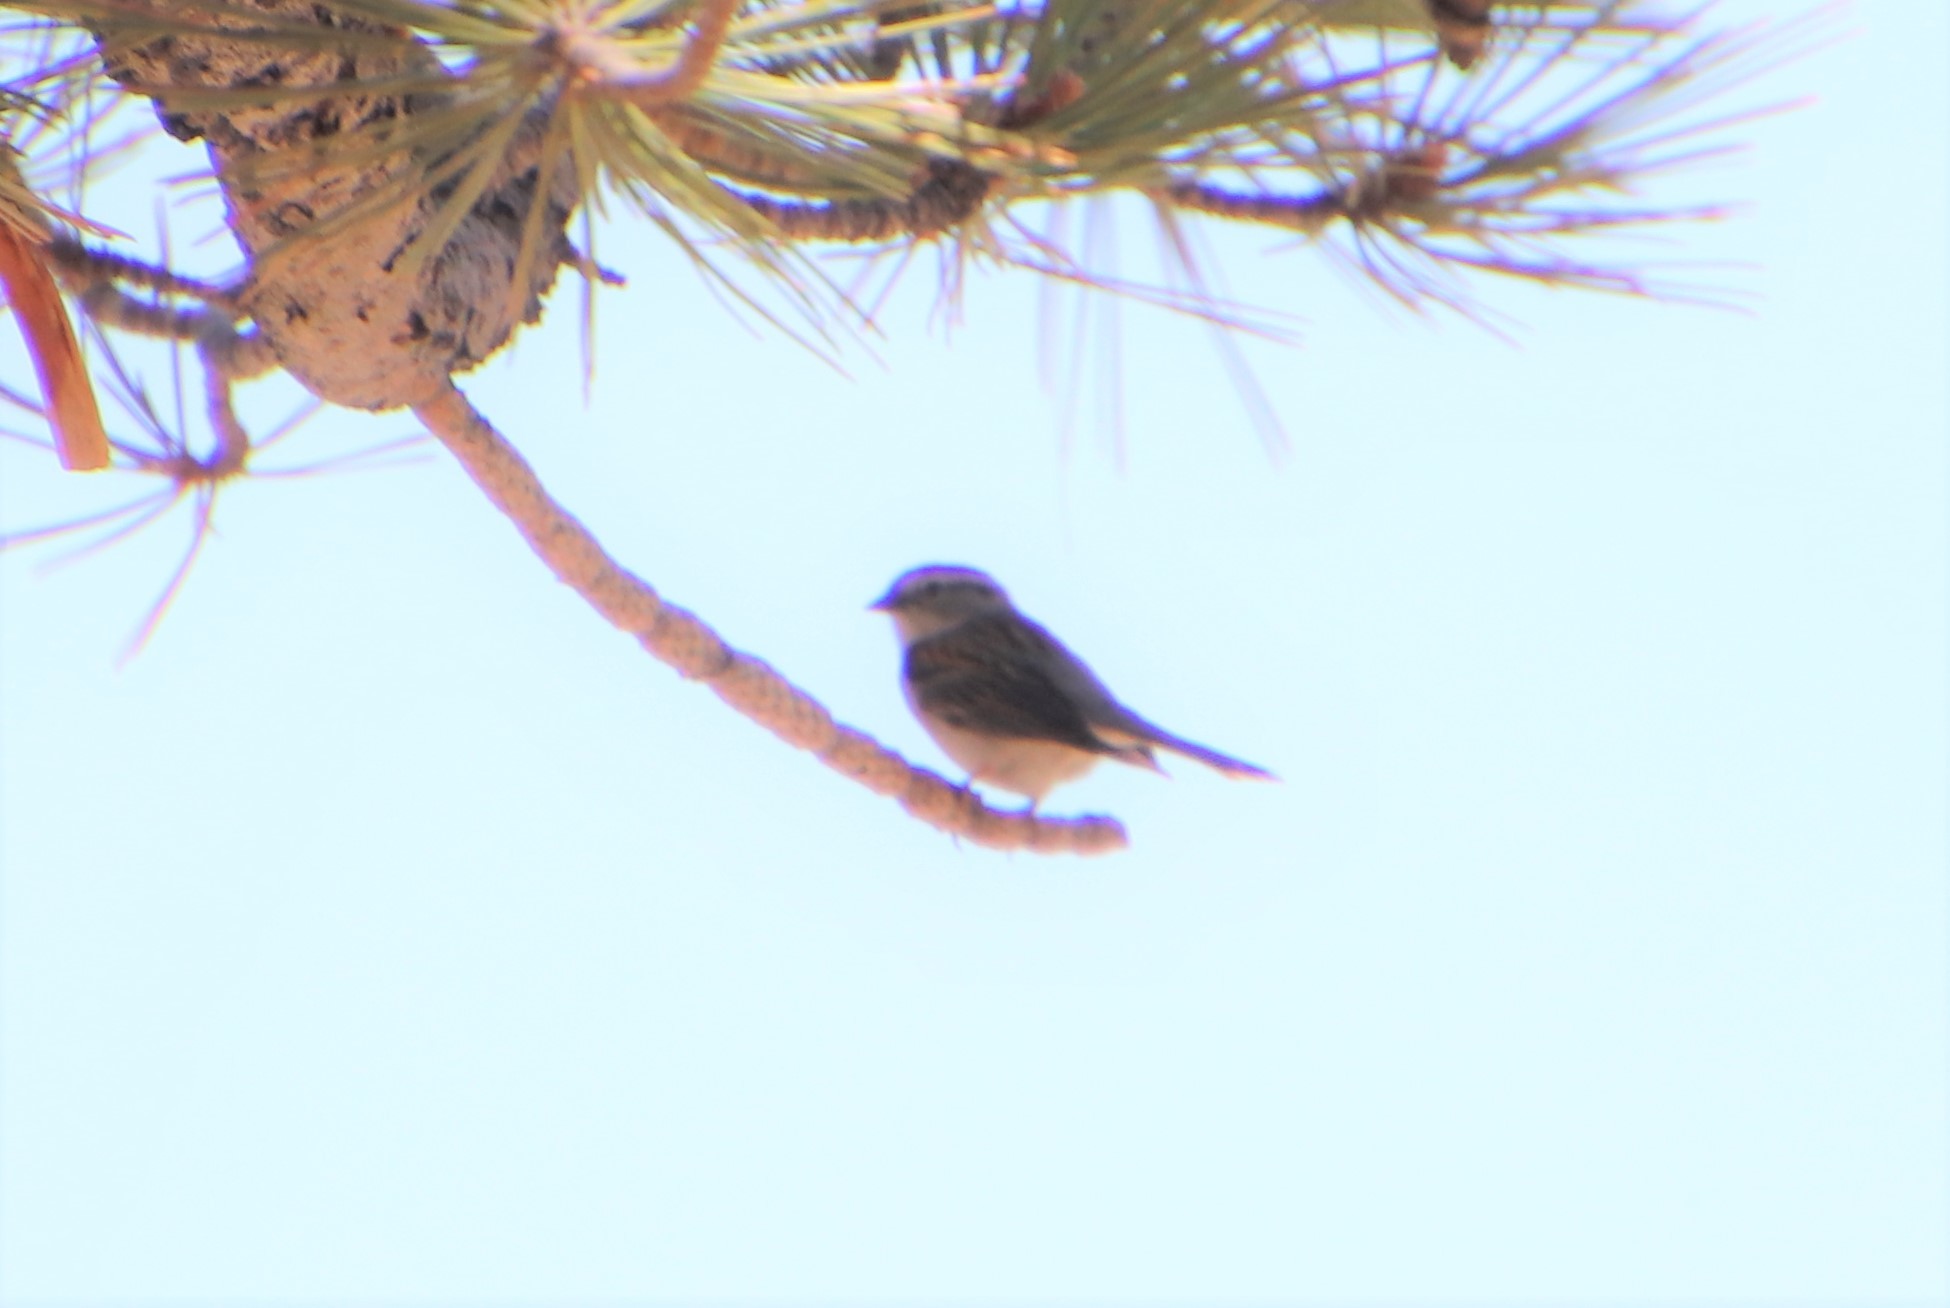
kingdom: Animalia
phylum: Chordata
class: Aves
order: Passeriformes
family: Passerellidae
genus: Spizella
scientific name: Spizella passerina
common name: Chipping sparrow
